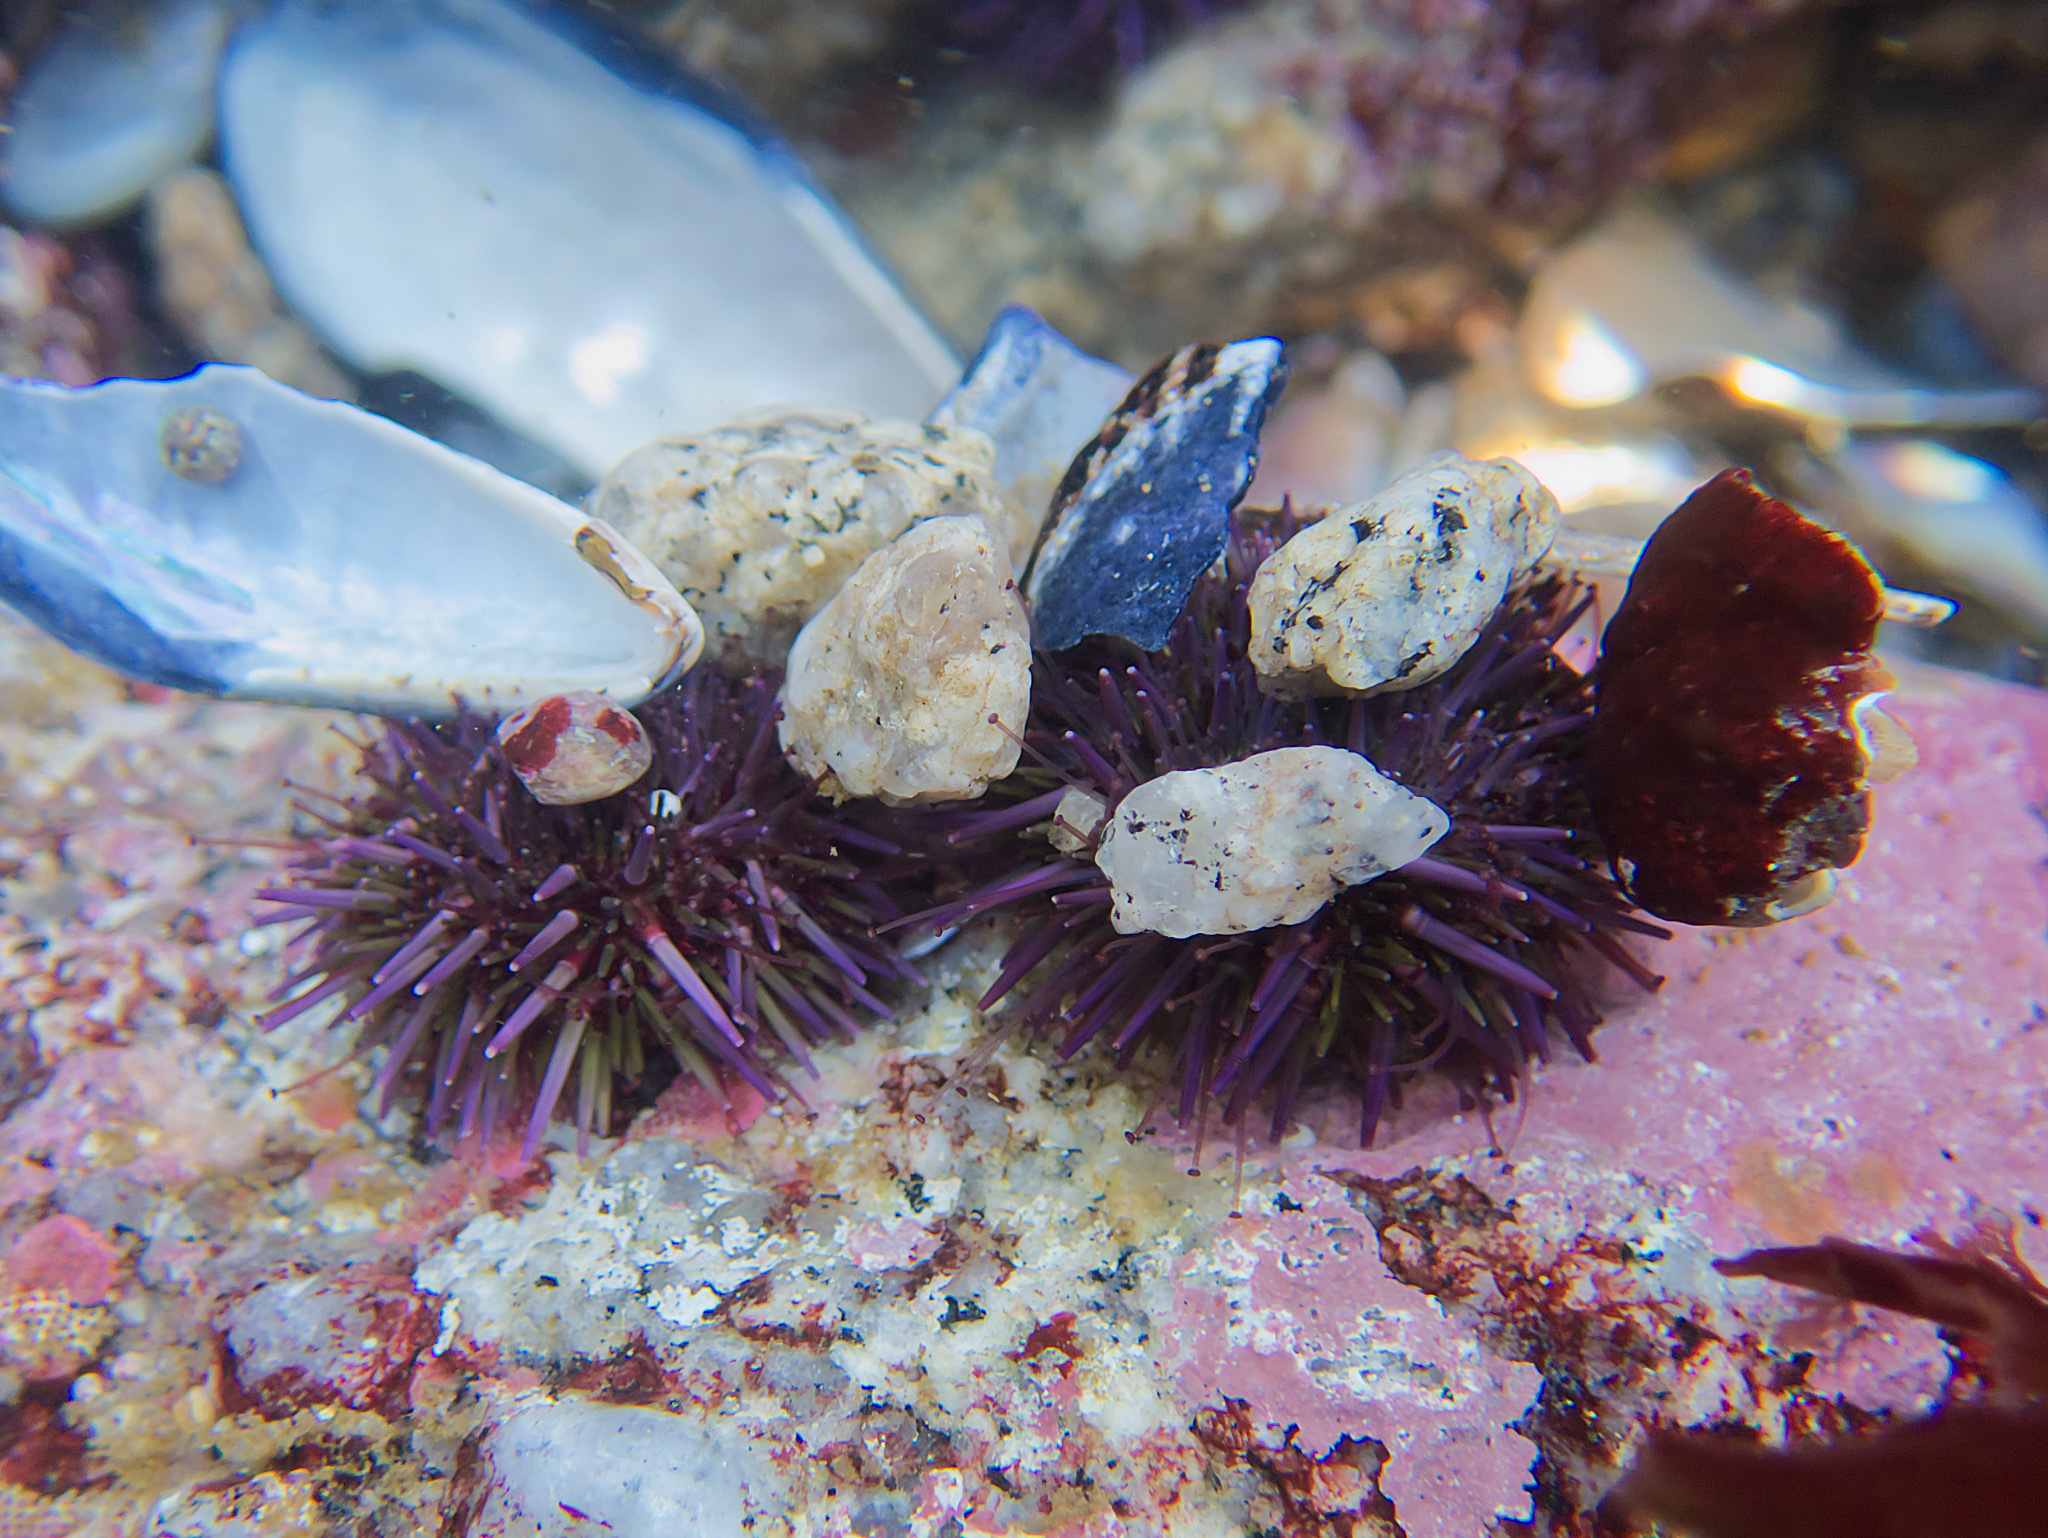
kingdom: Animalia
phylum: Echinodermata
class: Echinoidea
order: Camarodonta
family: Strongylocentrotidae
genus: Strongylocentrotus
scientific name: Strongylocentrotus purpuratus
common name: Purple sea urchin
